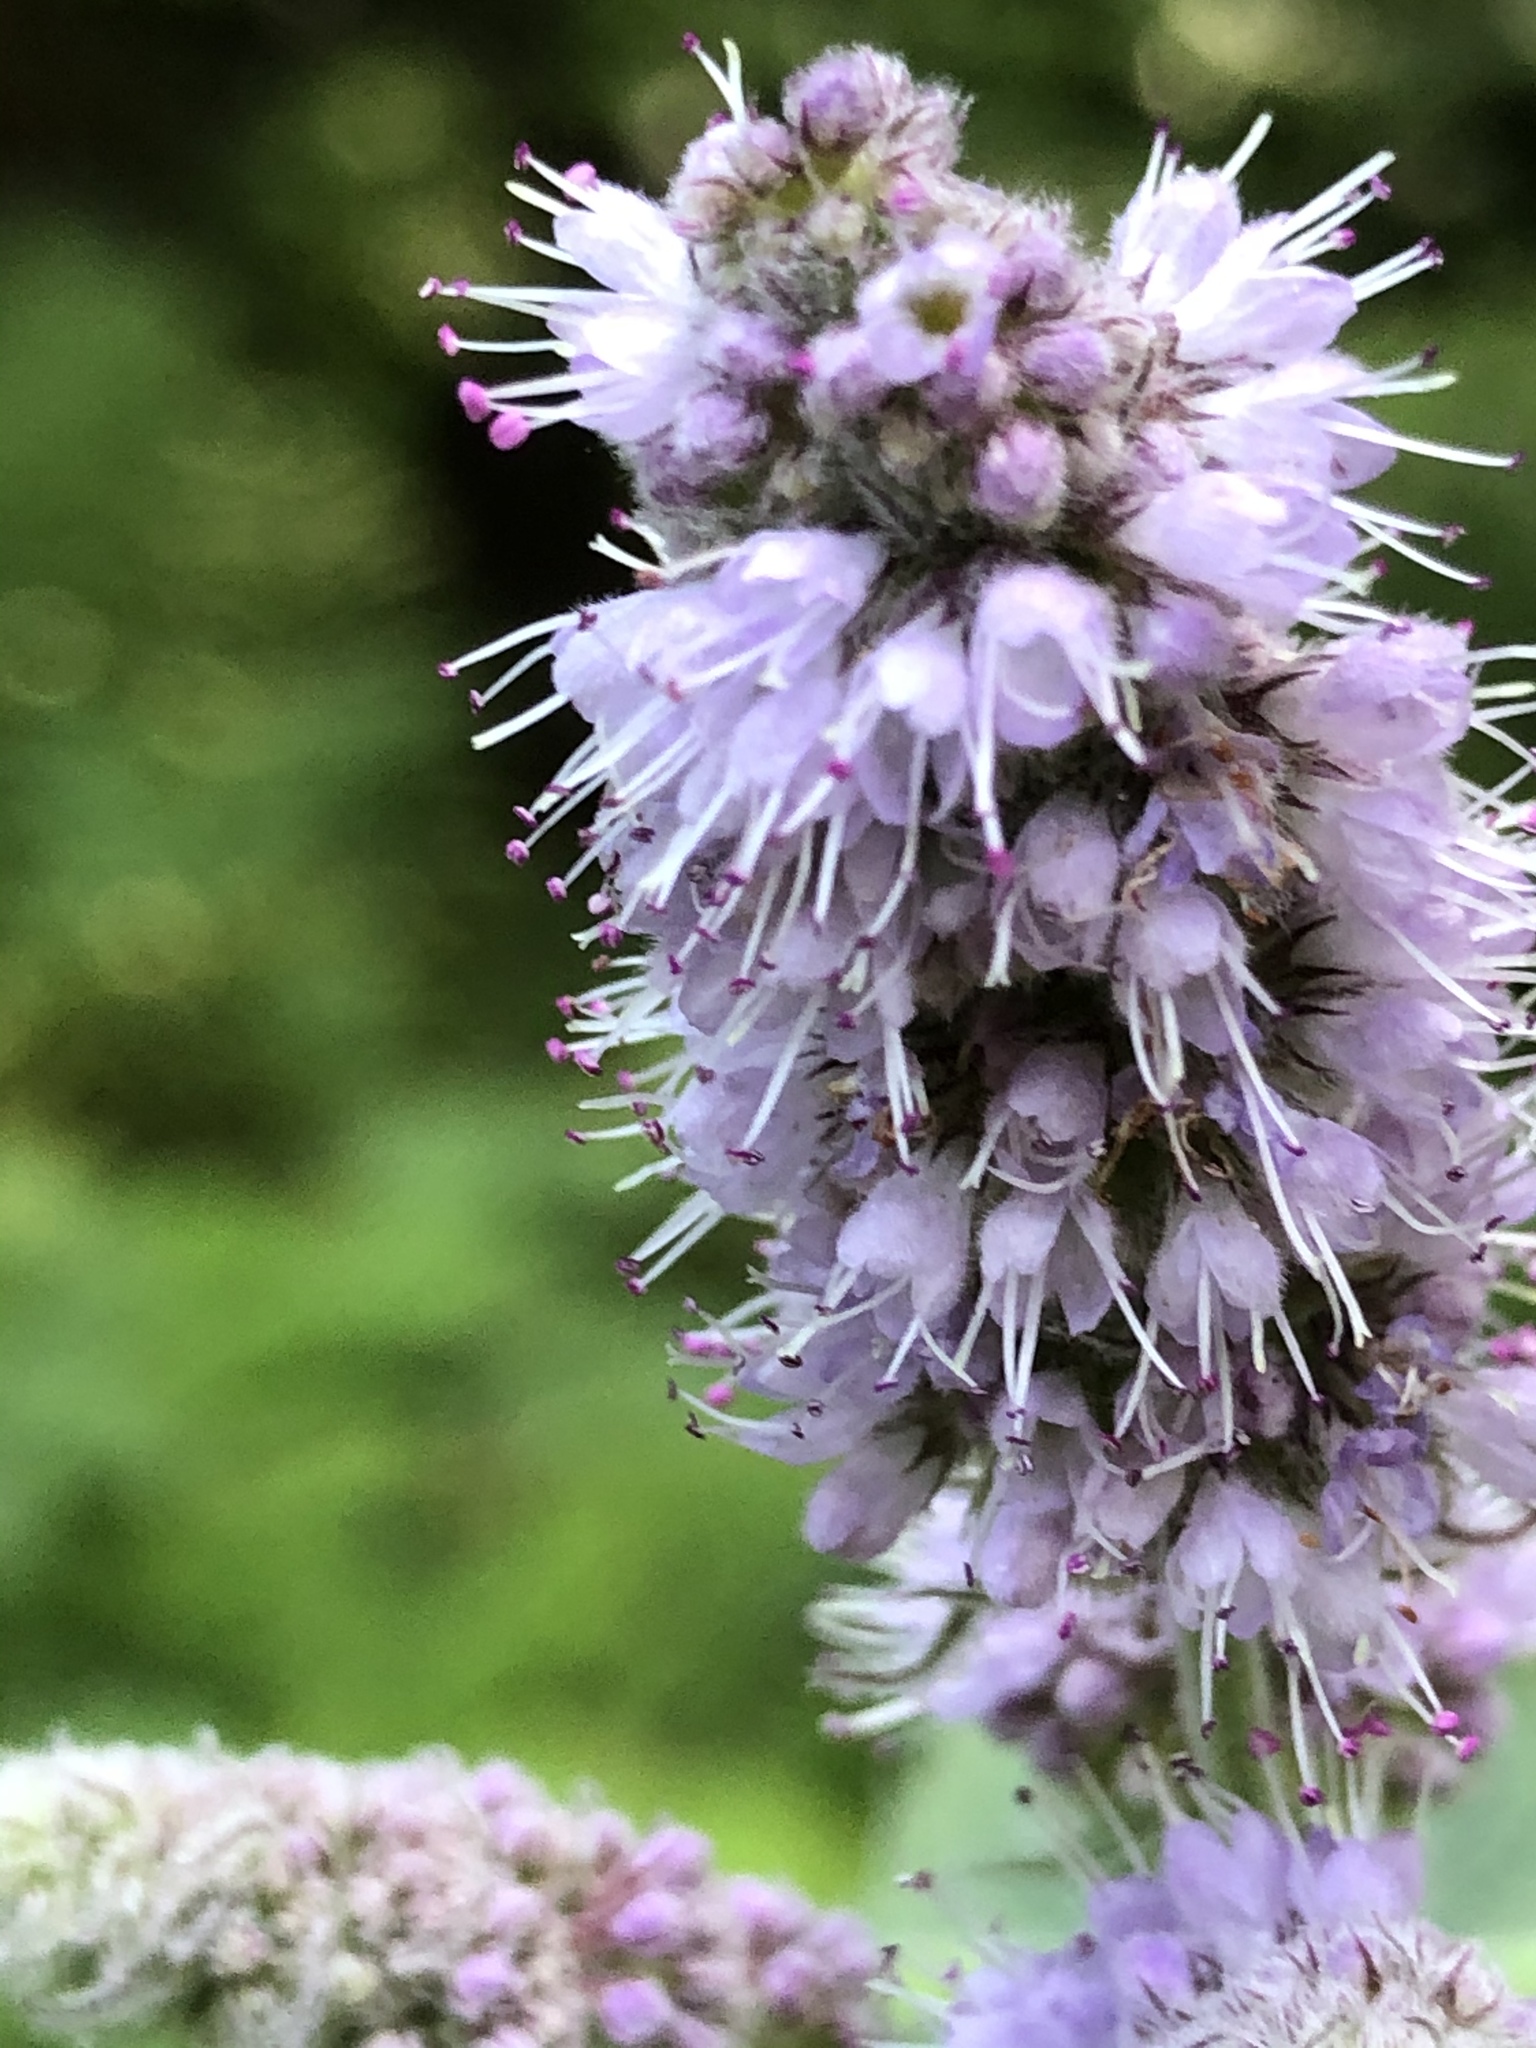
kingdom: Plantae
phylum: Tracheophyta
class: Magnoliopsida
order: Lamiales
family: Lamiaceae
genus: Mentha
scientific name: Mentha longifolia
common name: Horse mint
